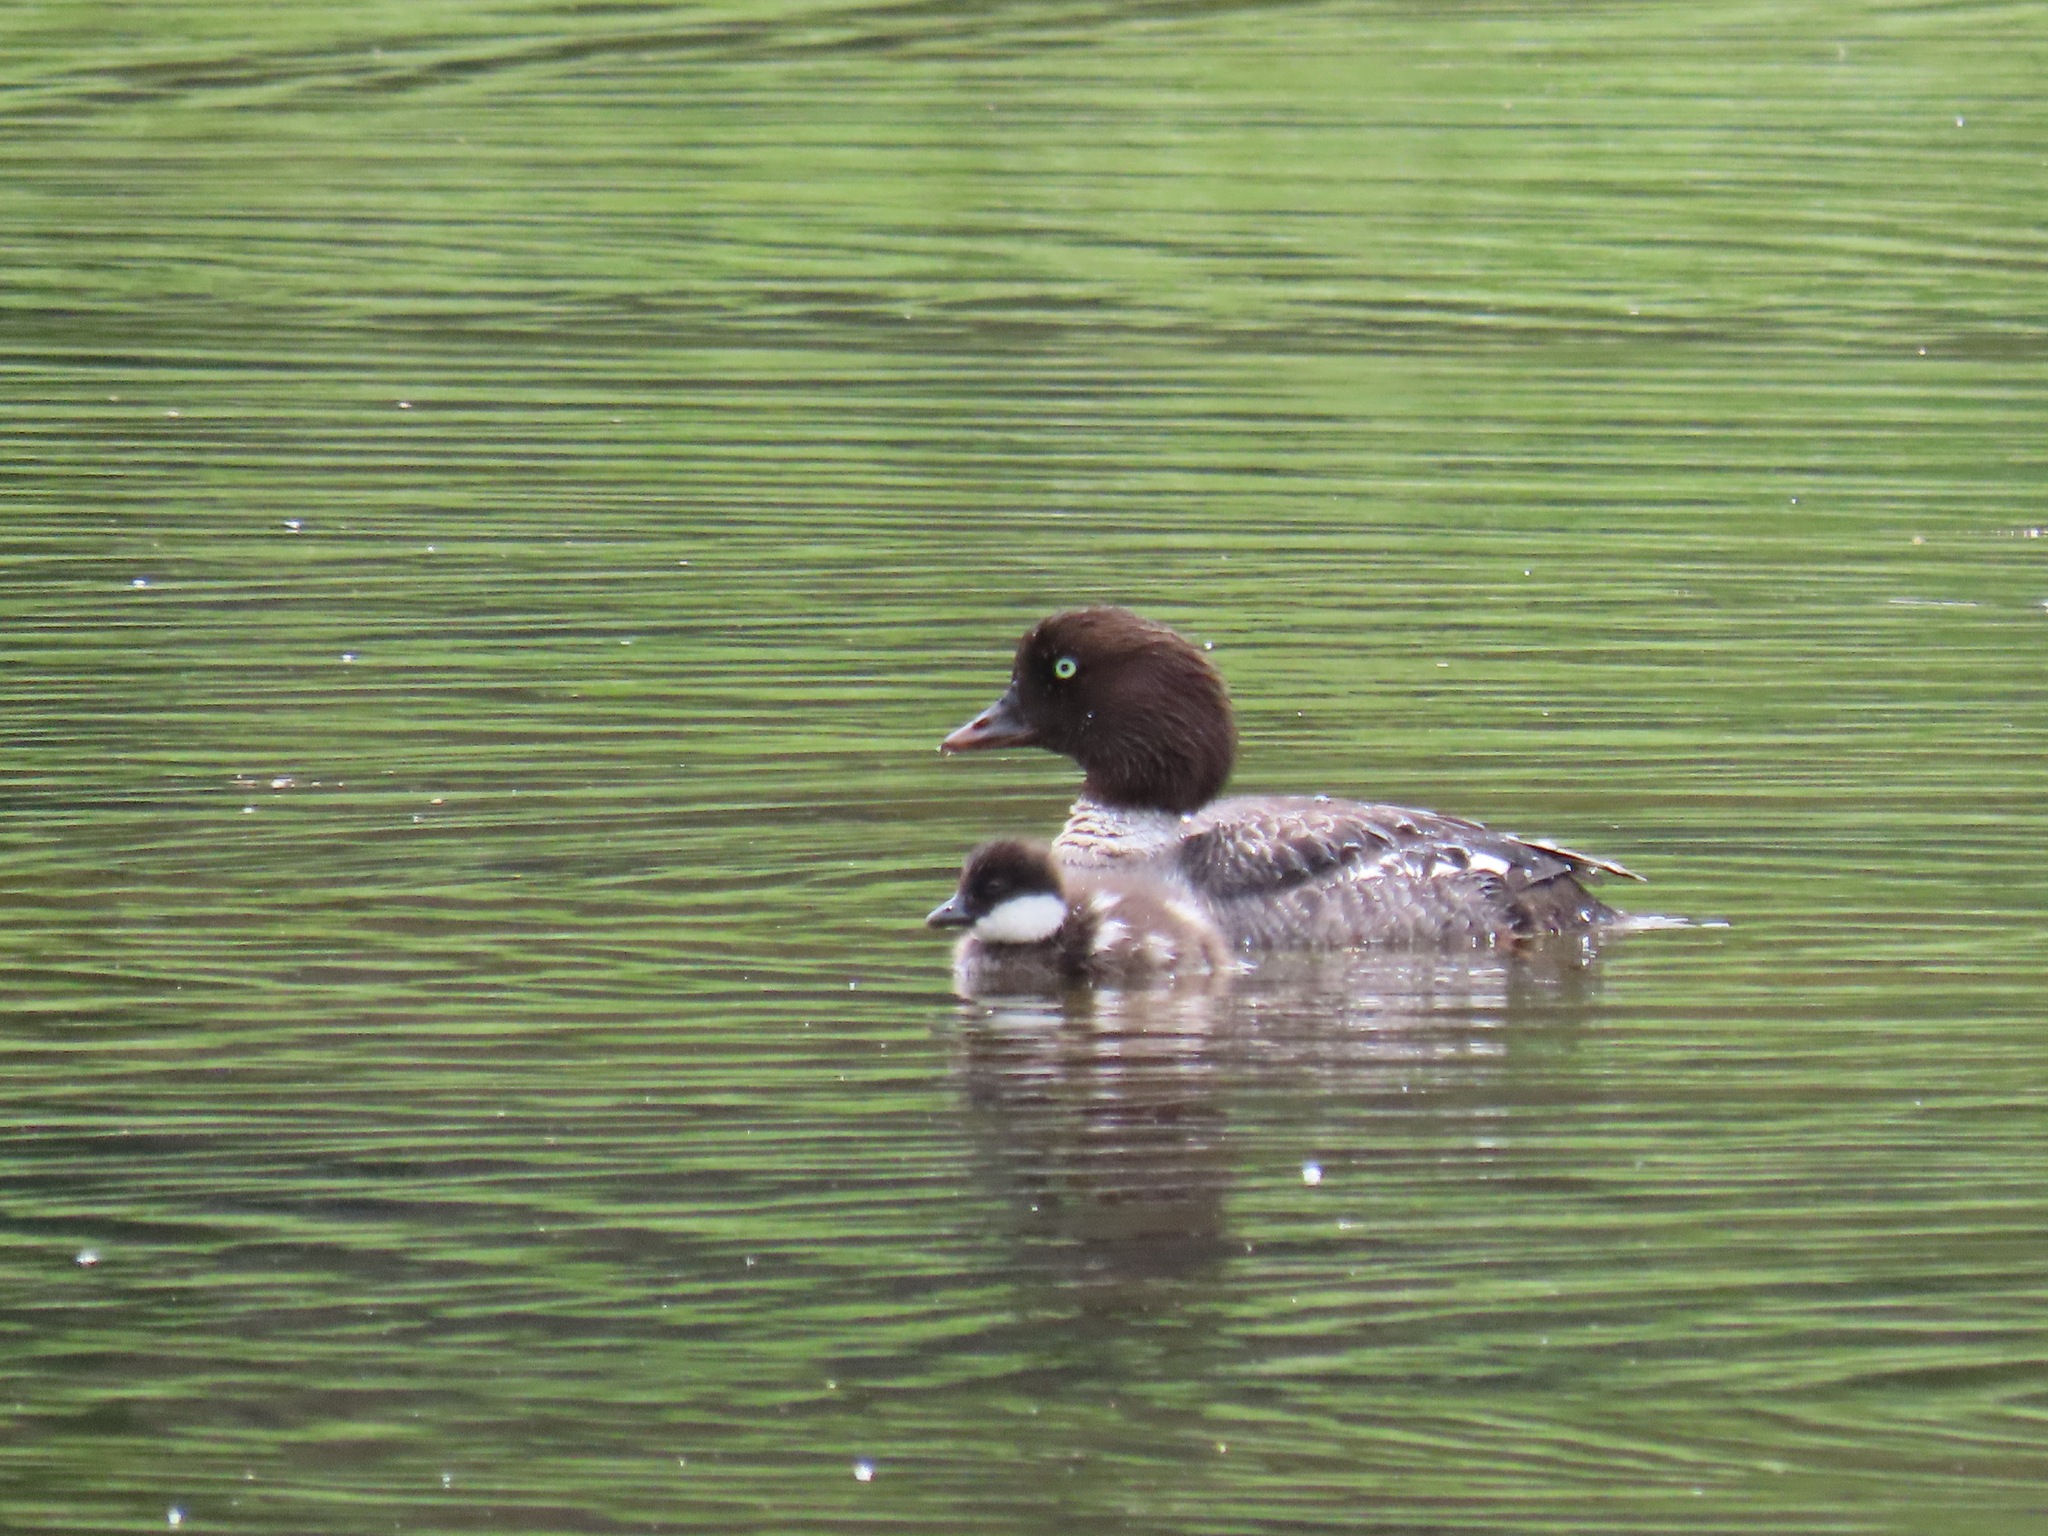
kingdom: Animalia
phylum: Chordata
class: Aves
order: Anseriformes
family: Anatidae
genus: Bucephala
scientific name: Bucephala islandica
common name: Barrow's goldeneye
